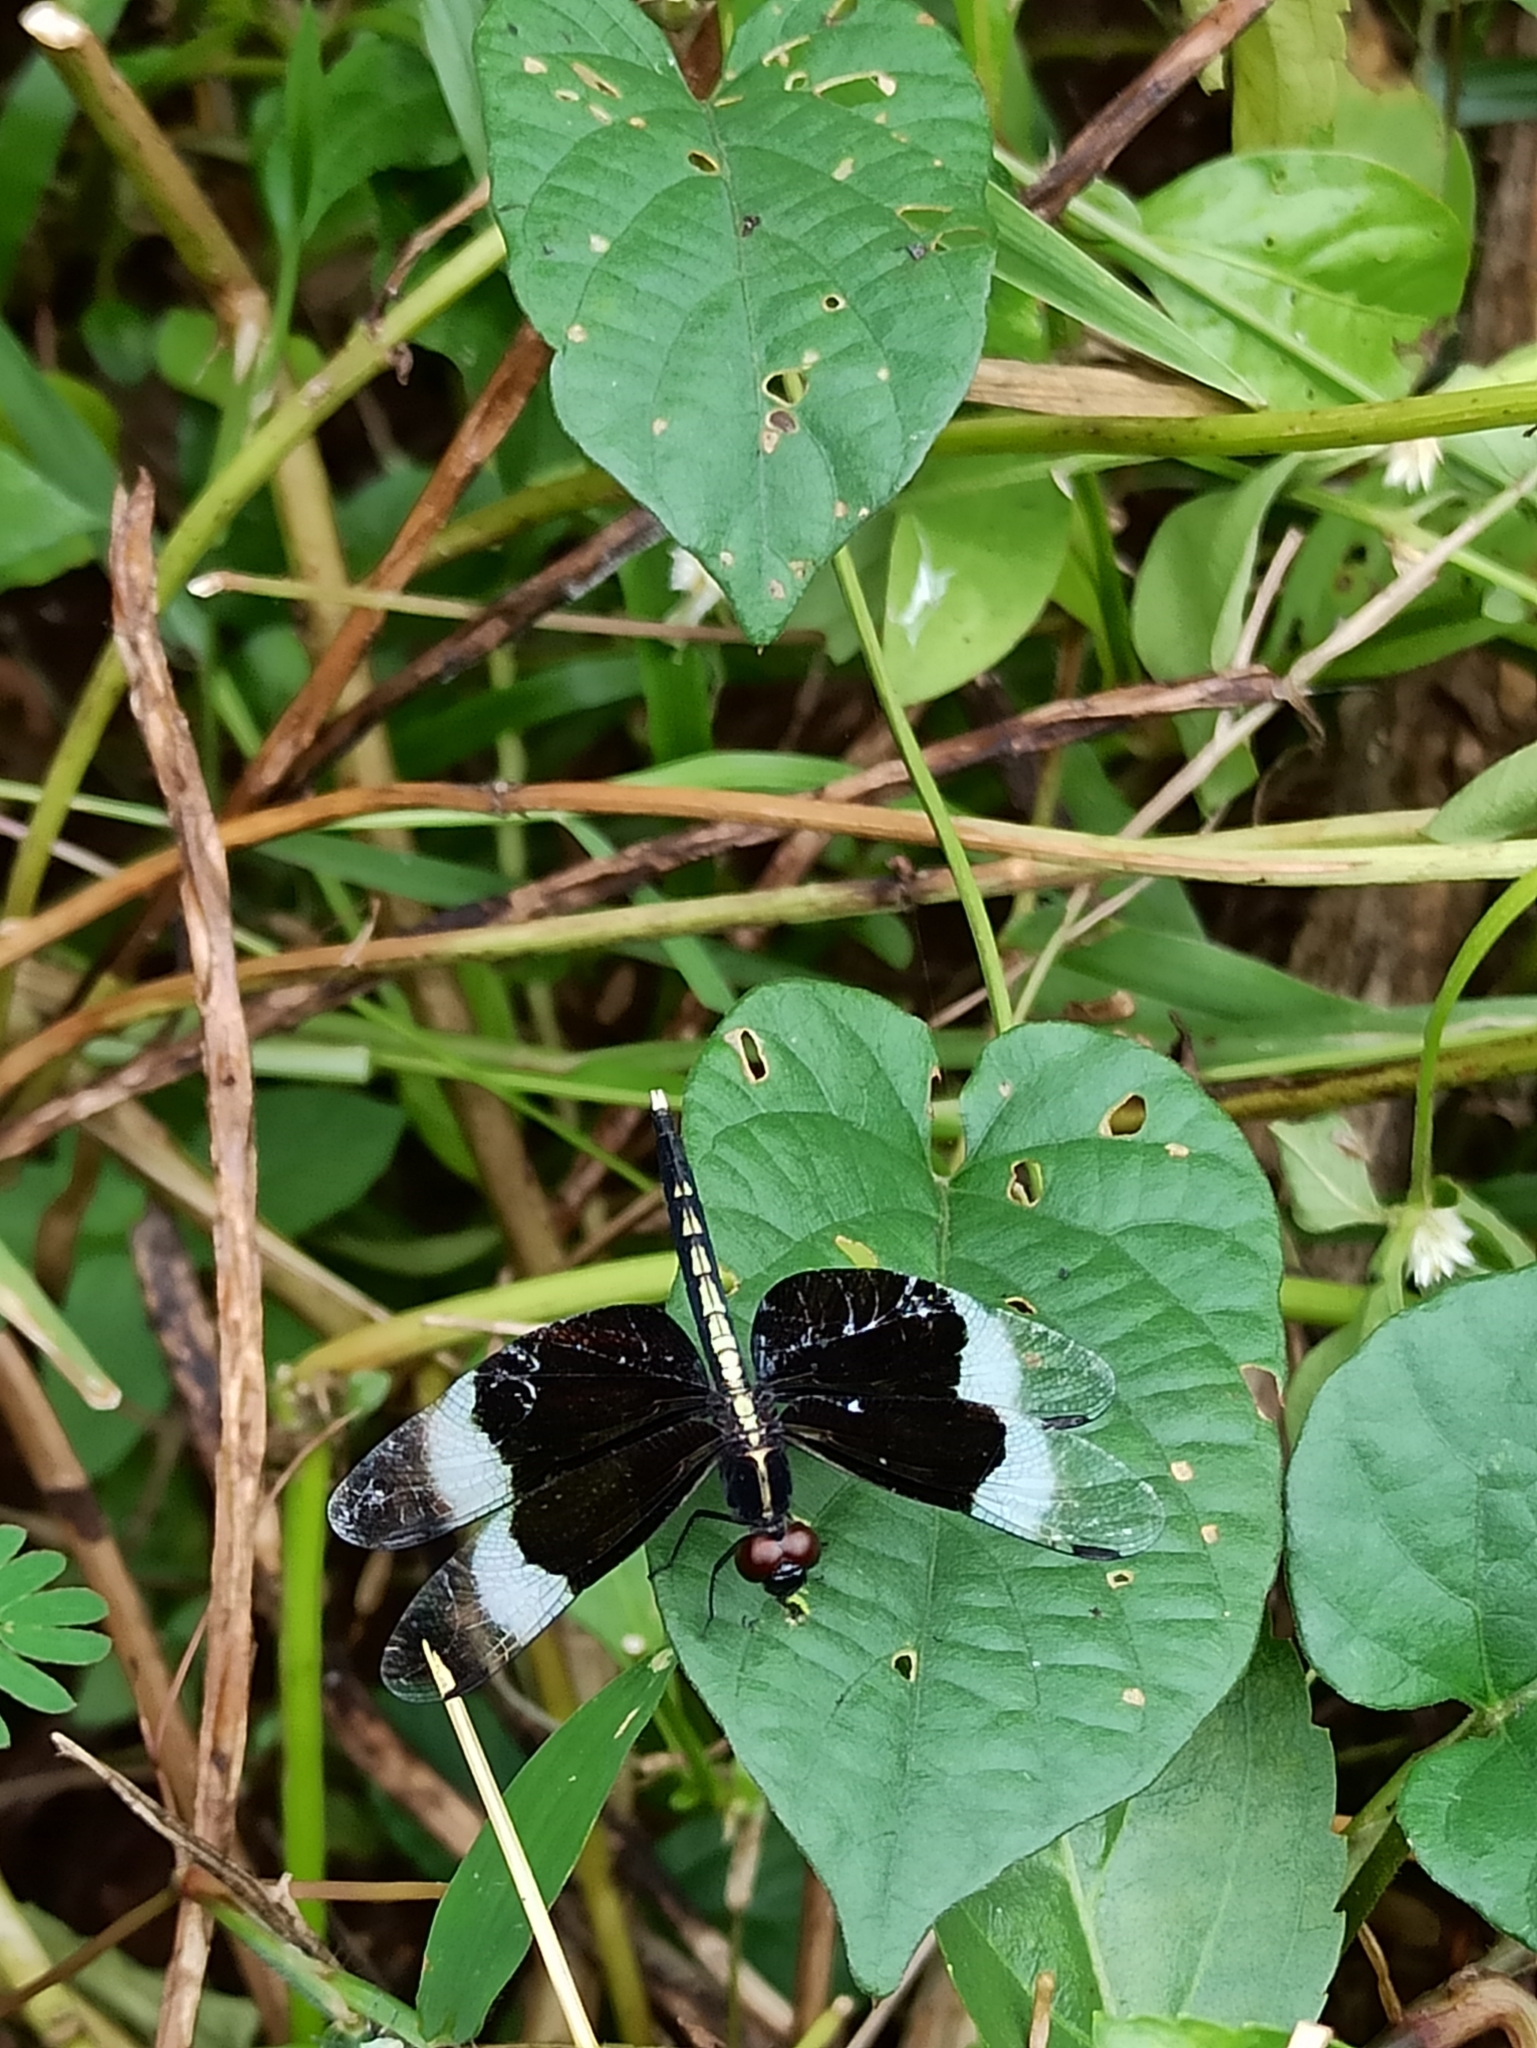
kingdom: Animalia
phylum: Arthropoda
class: Insecta
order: Odonata
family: Libellulidae
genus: Neurothemis
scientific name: Neurothemis tullia
